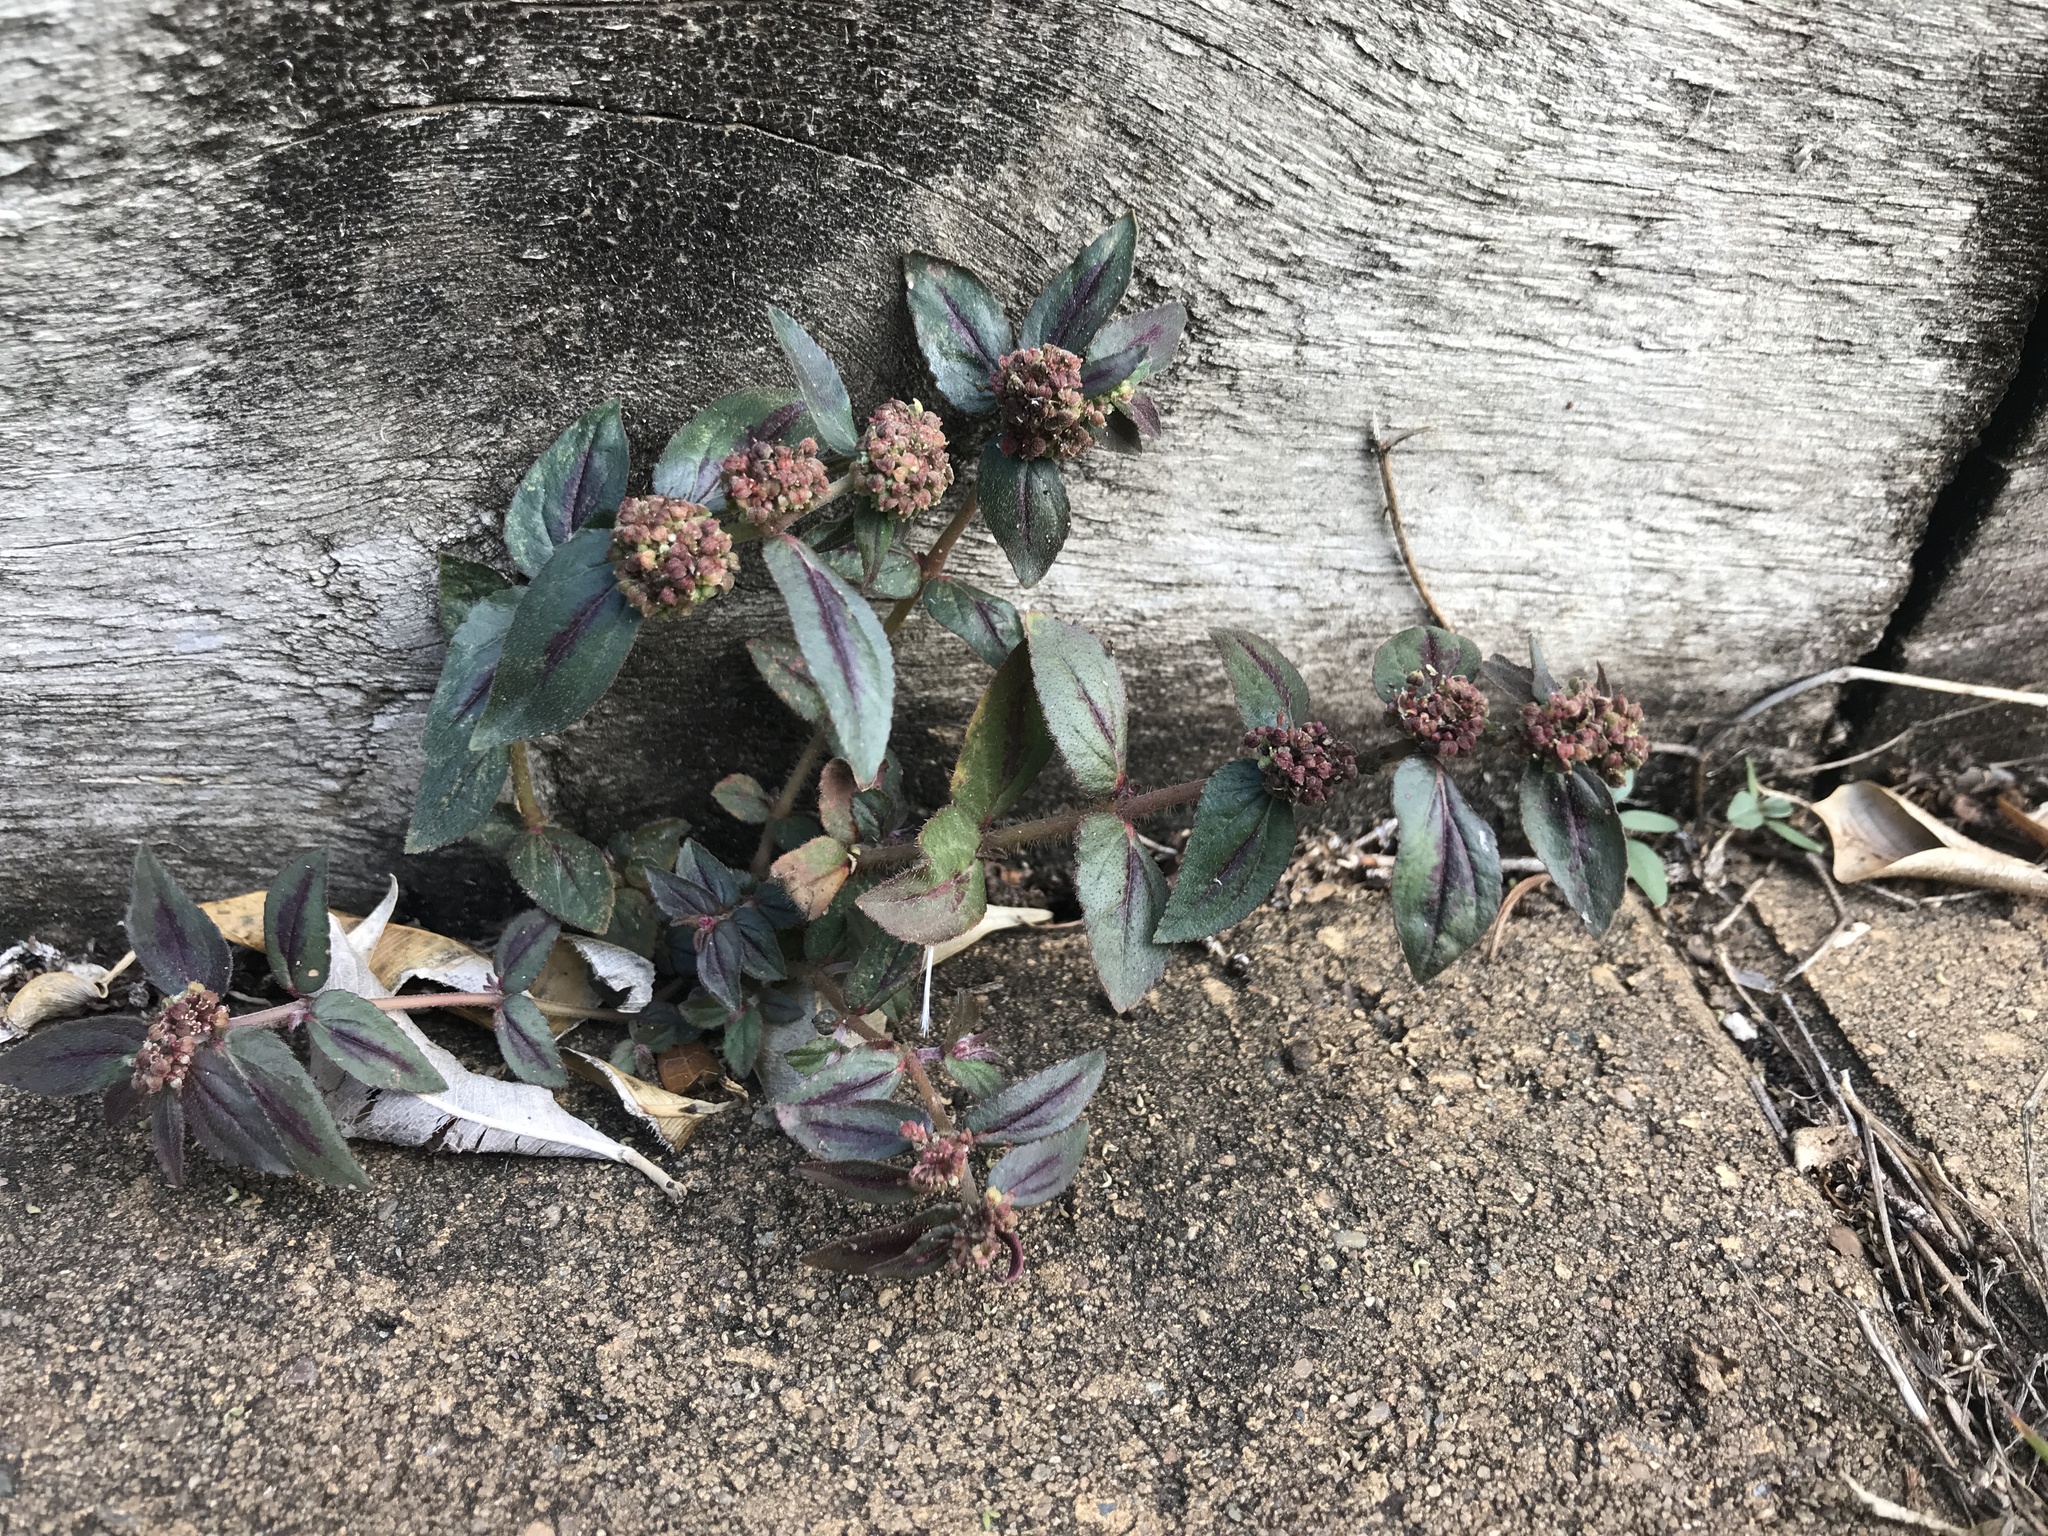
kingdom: Plantae
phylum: Tracheophyta
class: Magnoliopsida
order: Malpighiales
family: Euphorbiaceae
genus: Euphorbia
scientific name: Euphorbia hirta
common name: Pillpod sandmat
